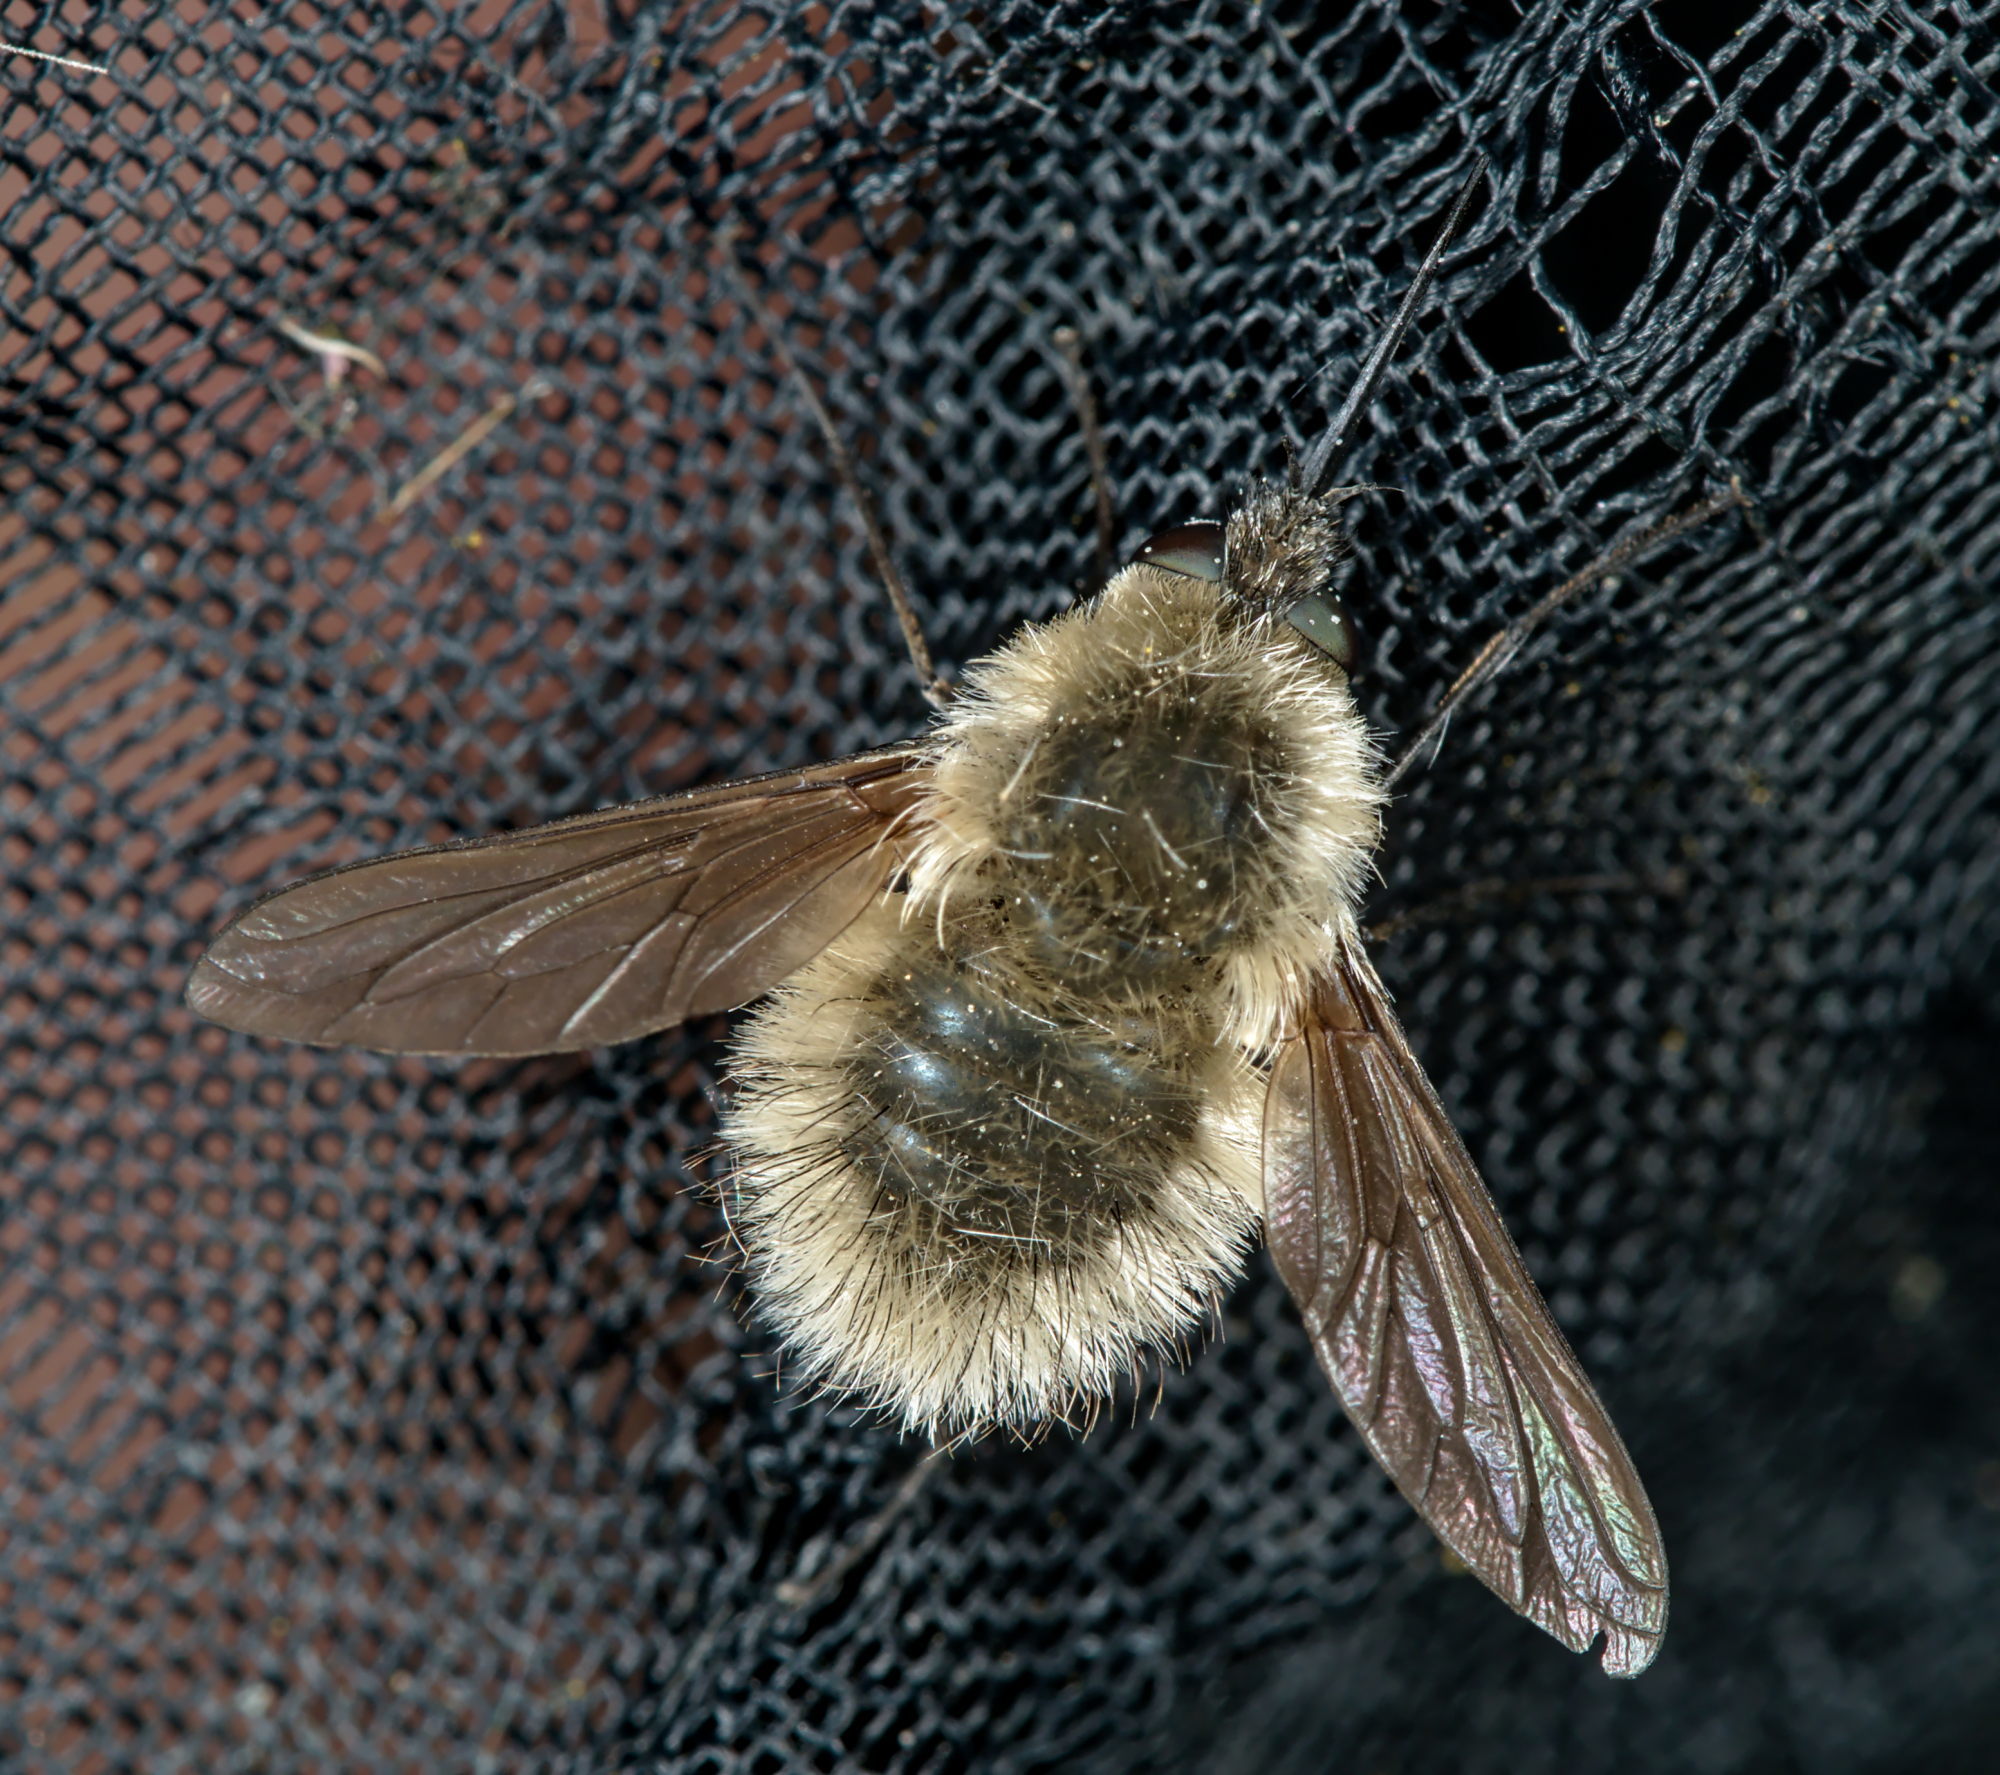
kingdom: Animalia
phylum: Arthropoda
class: Insecta
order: Diptera
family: Bombyliidae
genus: Systoechus
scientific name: Systoechus ctenopterus
